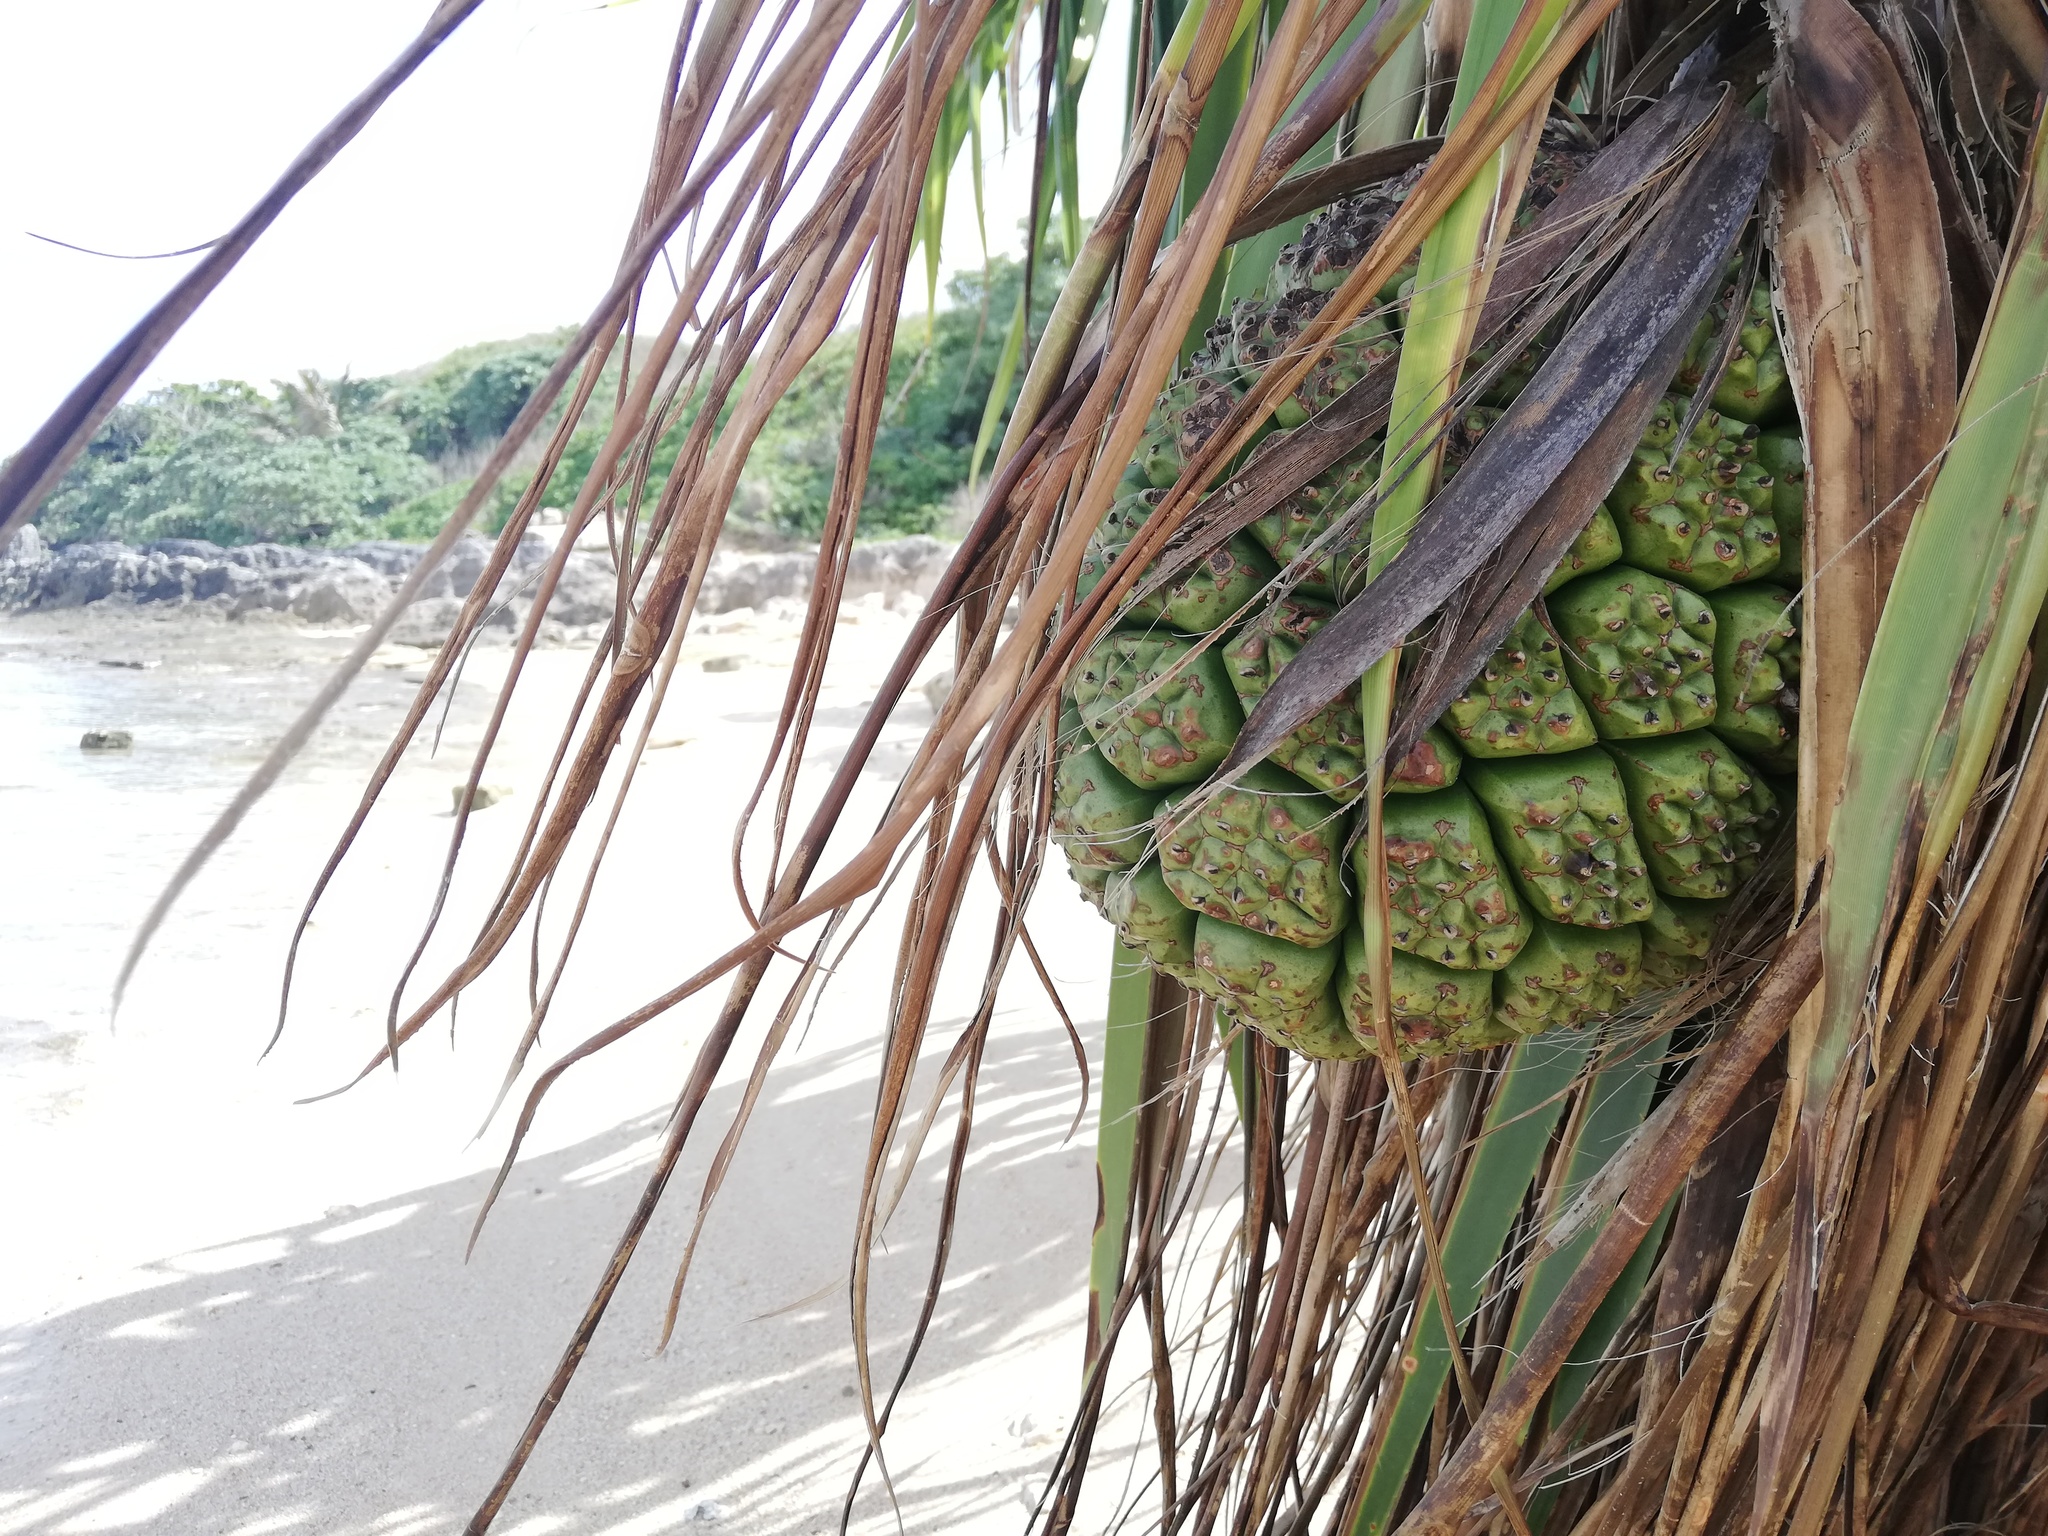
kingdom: Plantae
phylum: Tracheophyta
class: Liliopsida
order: Pandanales
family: Pandanaceae
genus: Pandanus
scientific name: Pandanus tectorius
